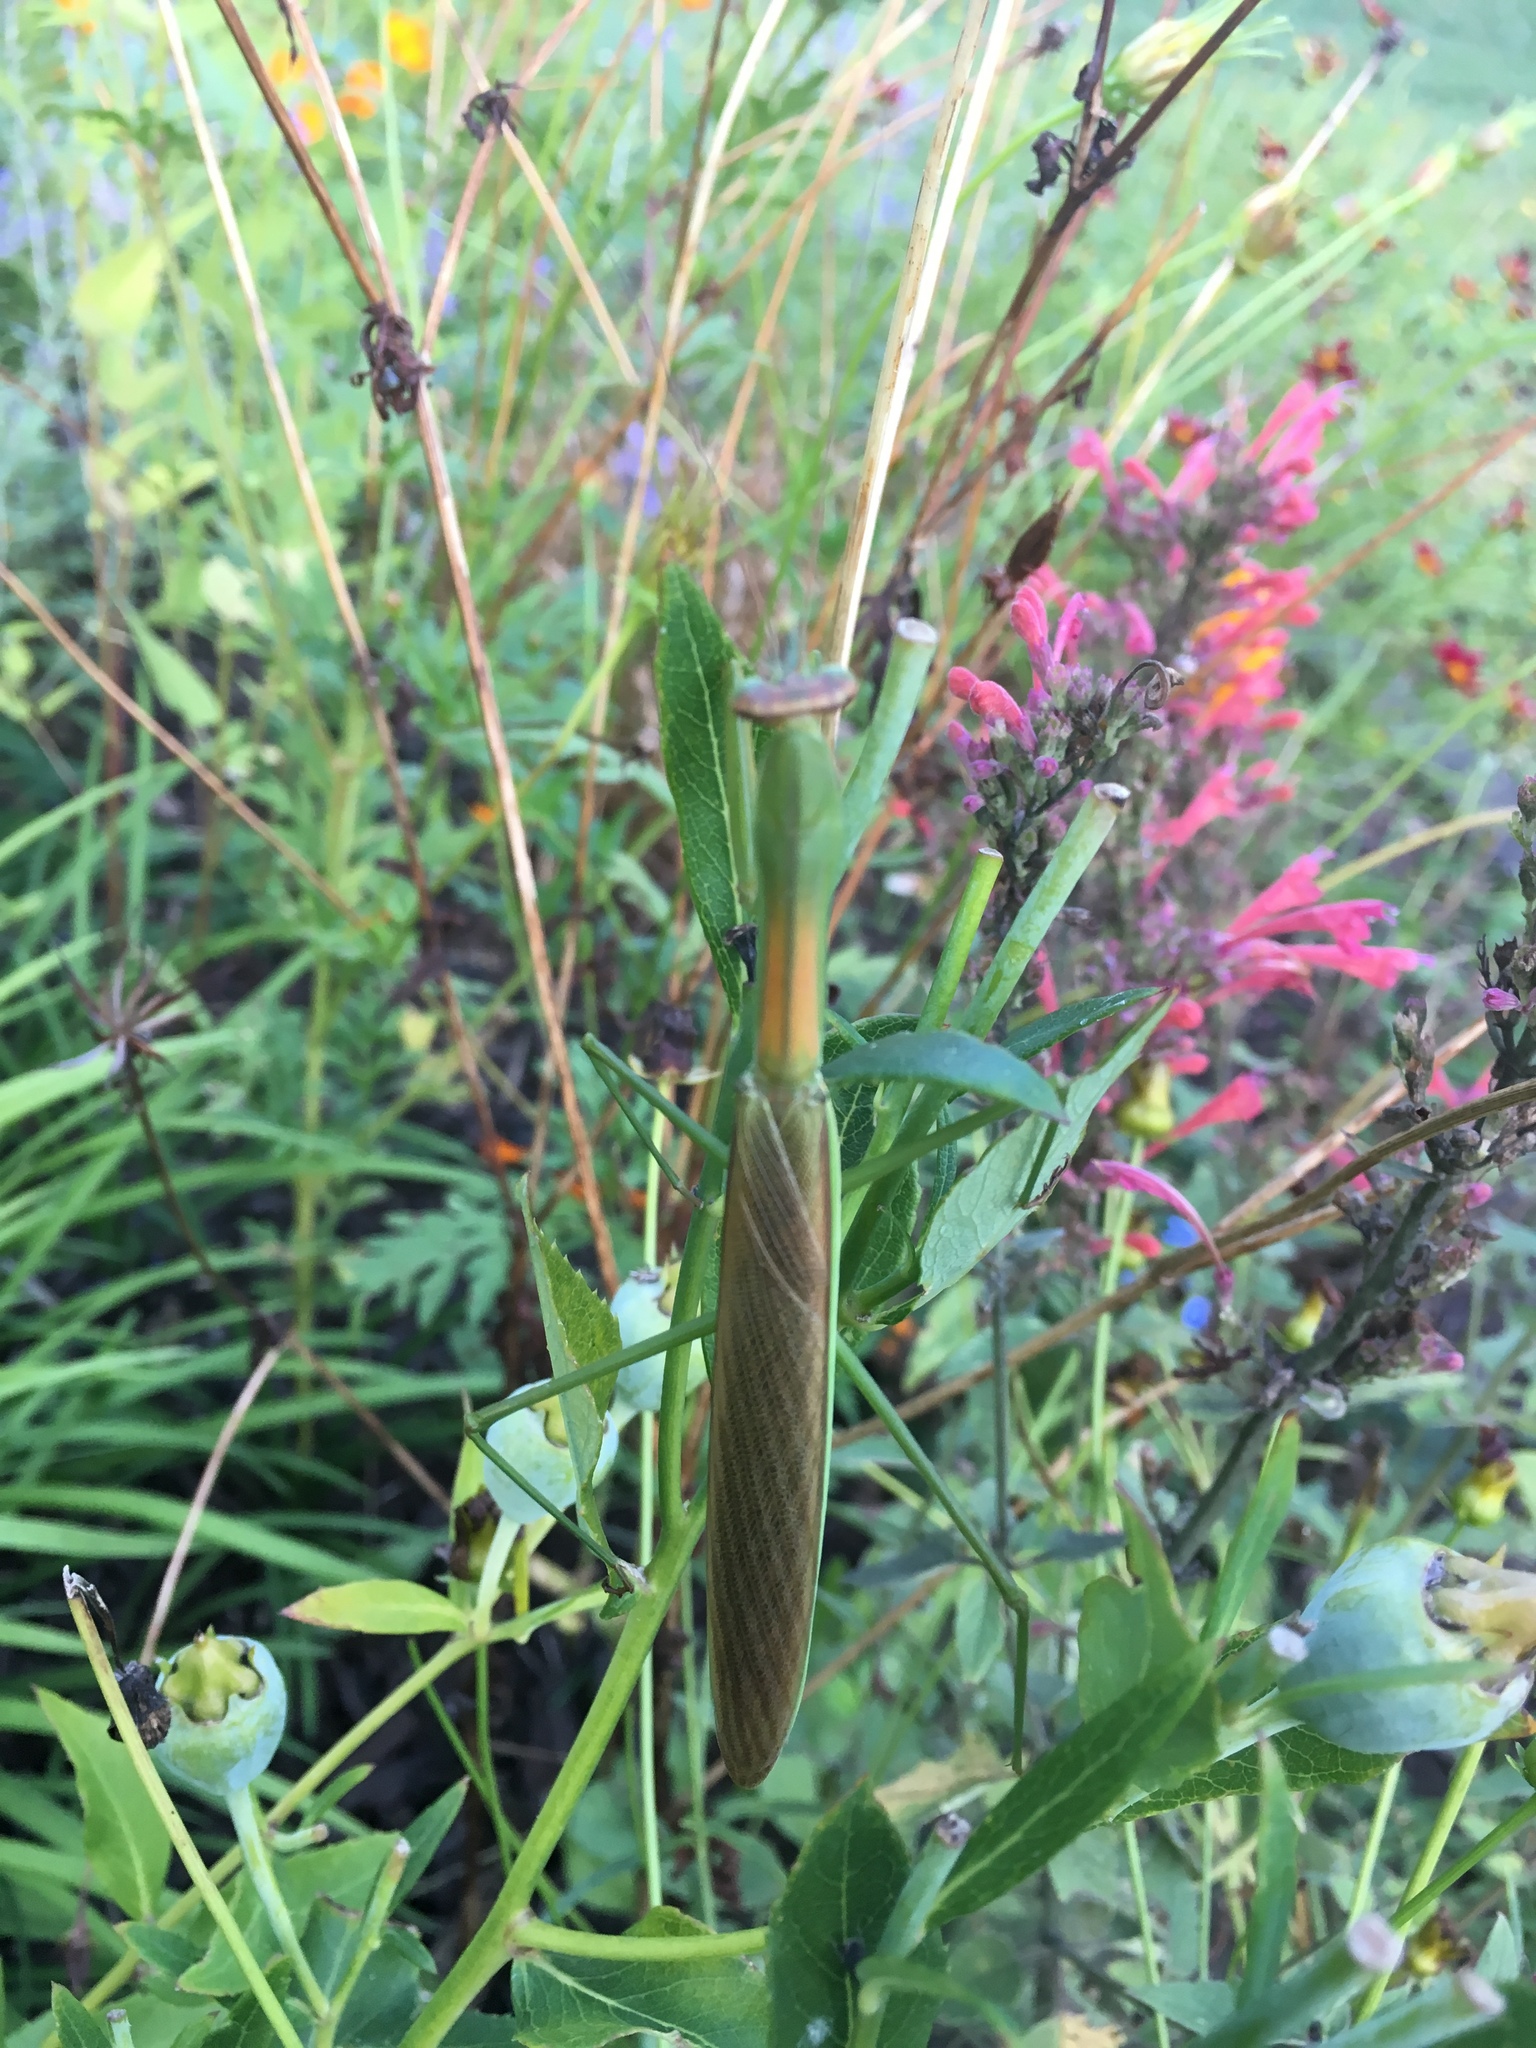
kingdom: Animalia
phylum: Arthropoda
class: Insecta
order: Mantodea
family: Mantidae
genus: Tenodera
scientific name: Tenodera angustipennis
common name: Asian mantis
